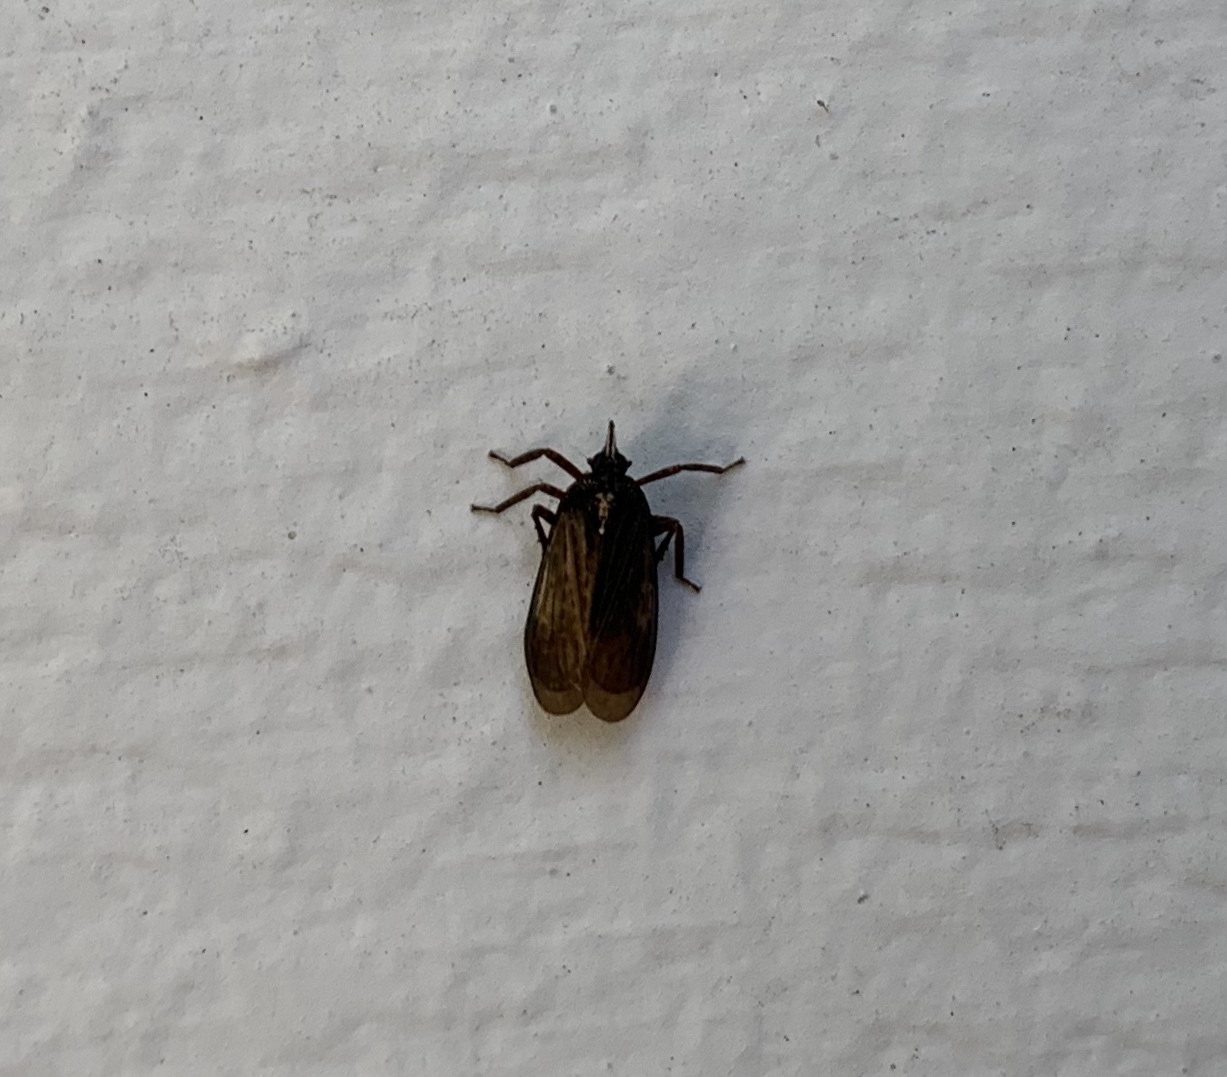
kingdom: Animalia
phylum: Arthropoda
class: Insecta
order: Hemiptera
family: Dictyopharidae
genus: Scolops
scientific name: Scolops fumida
